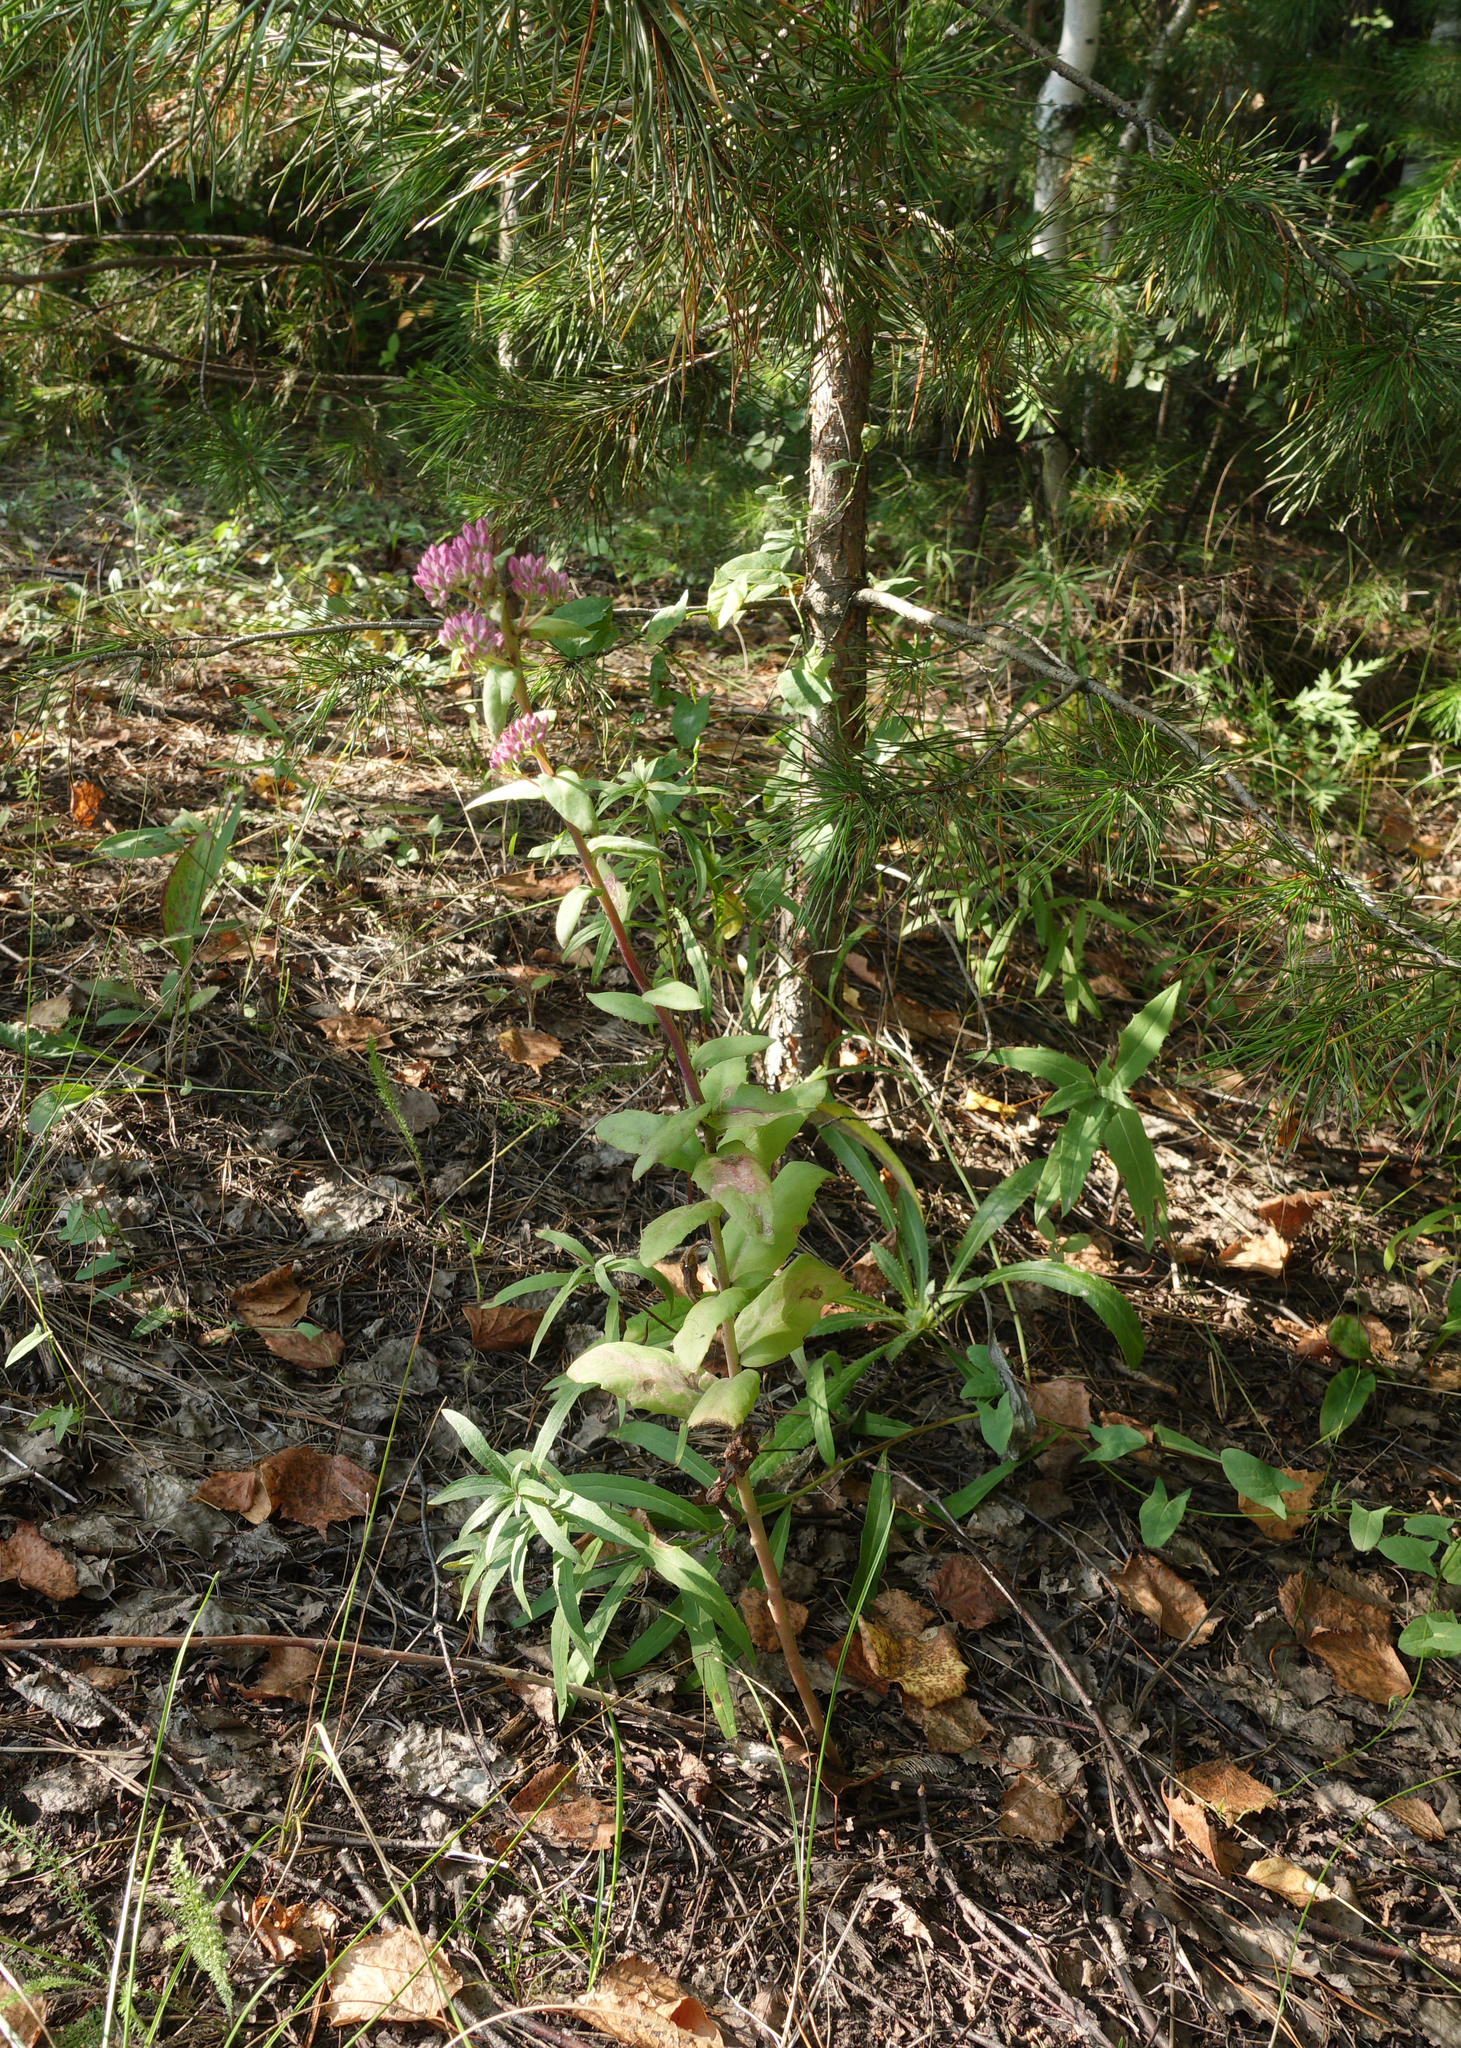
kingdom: Plantae
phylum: Tracheophyta
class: Magnoliopsida
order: Saxifragales
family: Crassulaceae
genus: Hylotelephium
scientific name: Hylotelephium telephium
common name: Live-forever
